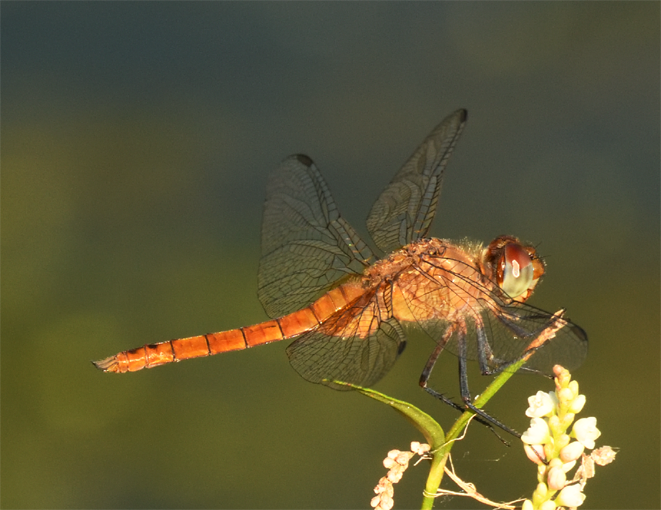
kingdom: Animalia
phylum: Arthropoda
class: Insecta
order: Odonata
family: Libellulidae
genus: Brachymesia
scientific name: Brachymesia furcata
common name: Red-taled pennant
